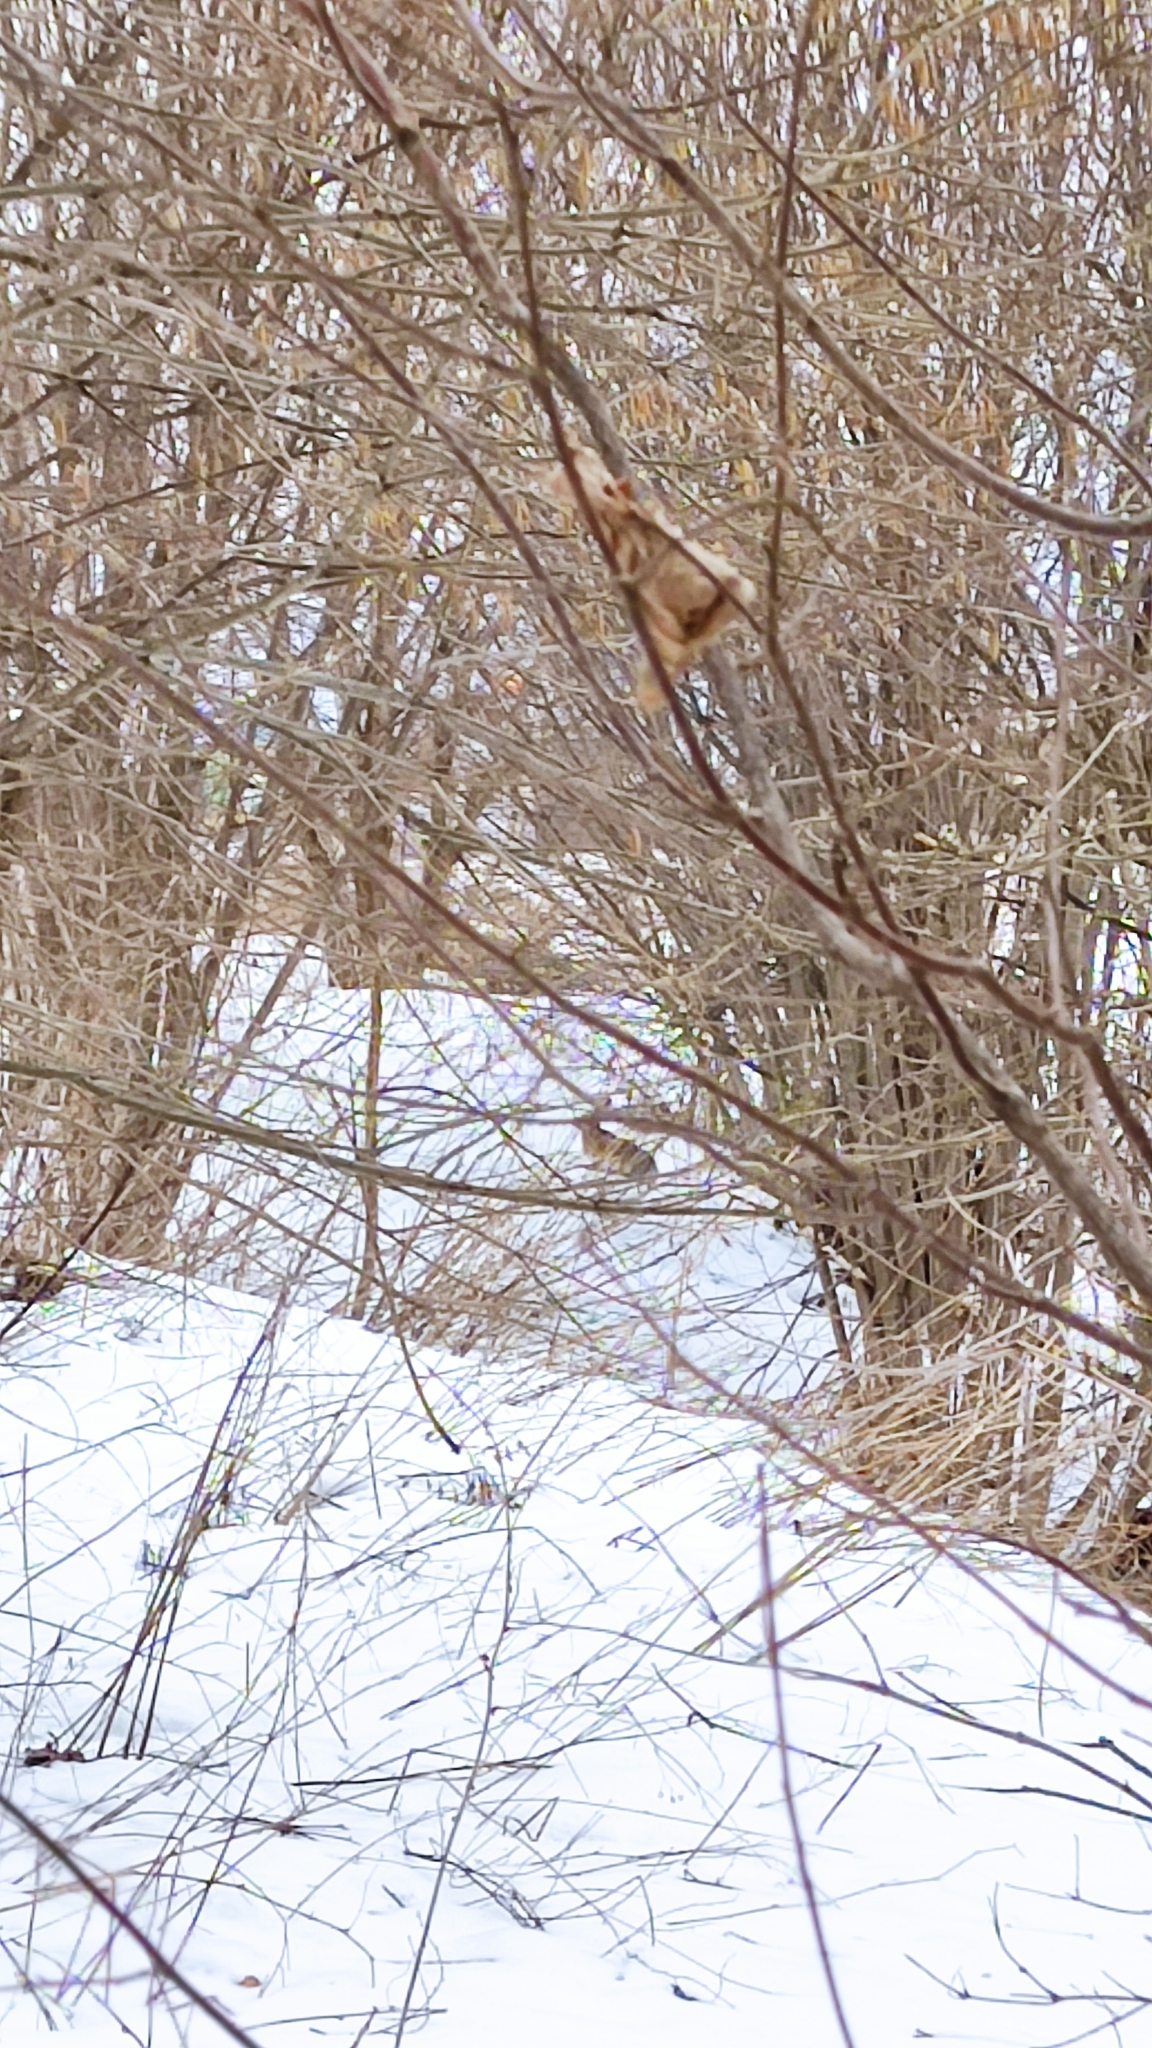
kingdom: Animalia
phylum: Chordata
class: Mammalia
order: Lagomorpha
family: Leporidae
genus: Lepus
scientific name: Lepus europaeus
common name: European hare
